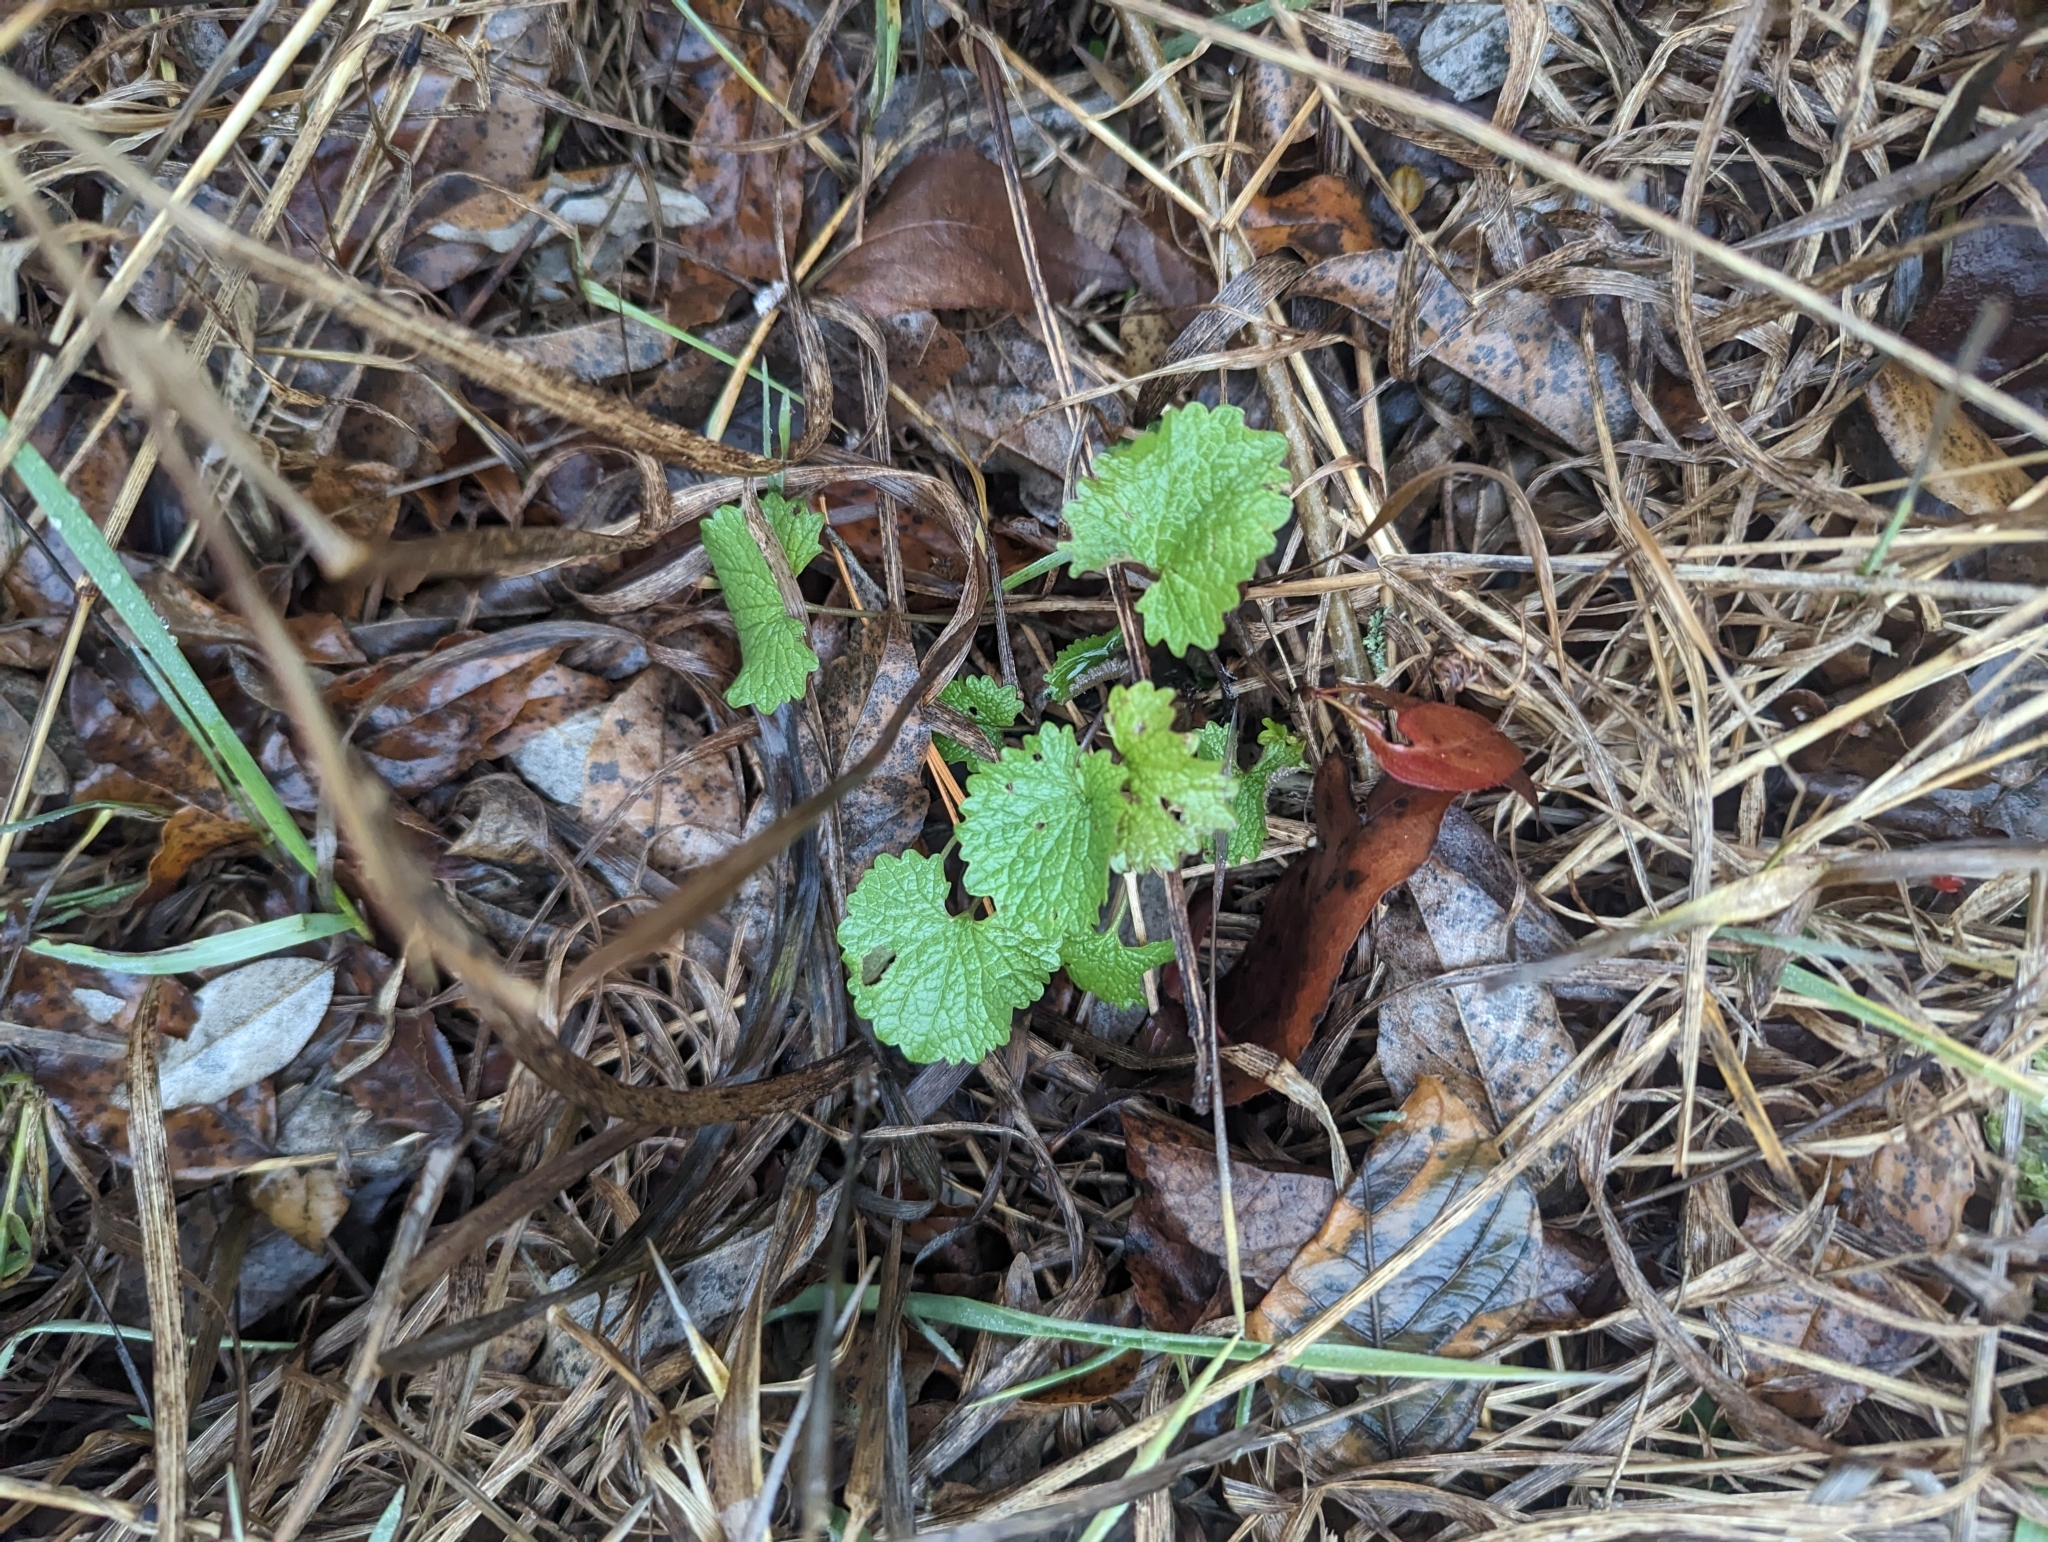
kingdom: Plantae
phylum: Tracheophyta
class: Magnoliopsida
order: Brassicales
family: Brassicaceae
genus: Alliaria
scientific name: Alliaria petiolata
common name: Garlic mustard
